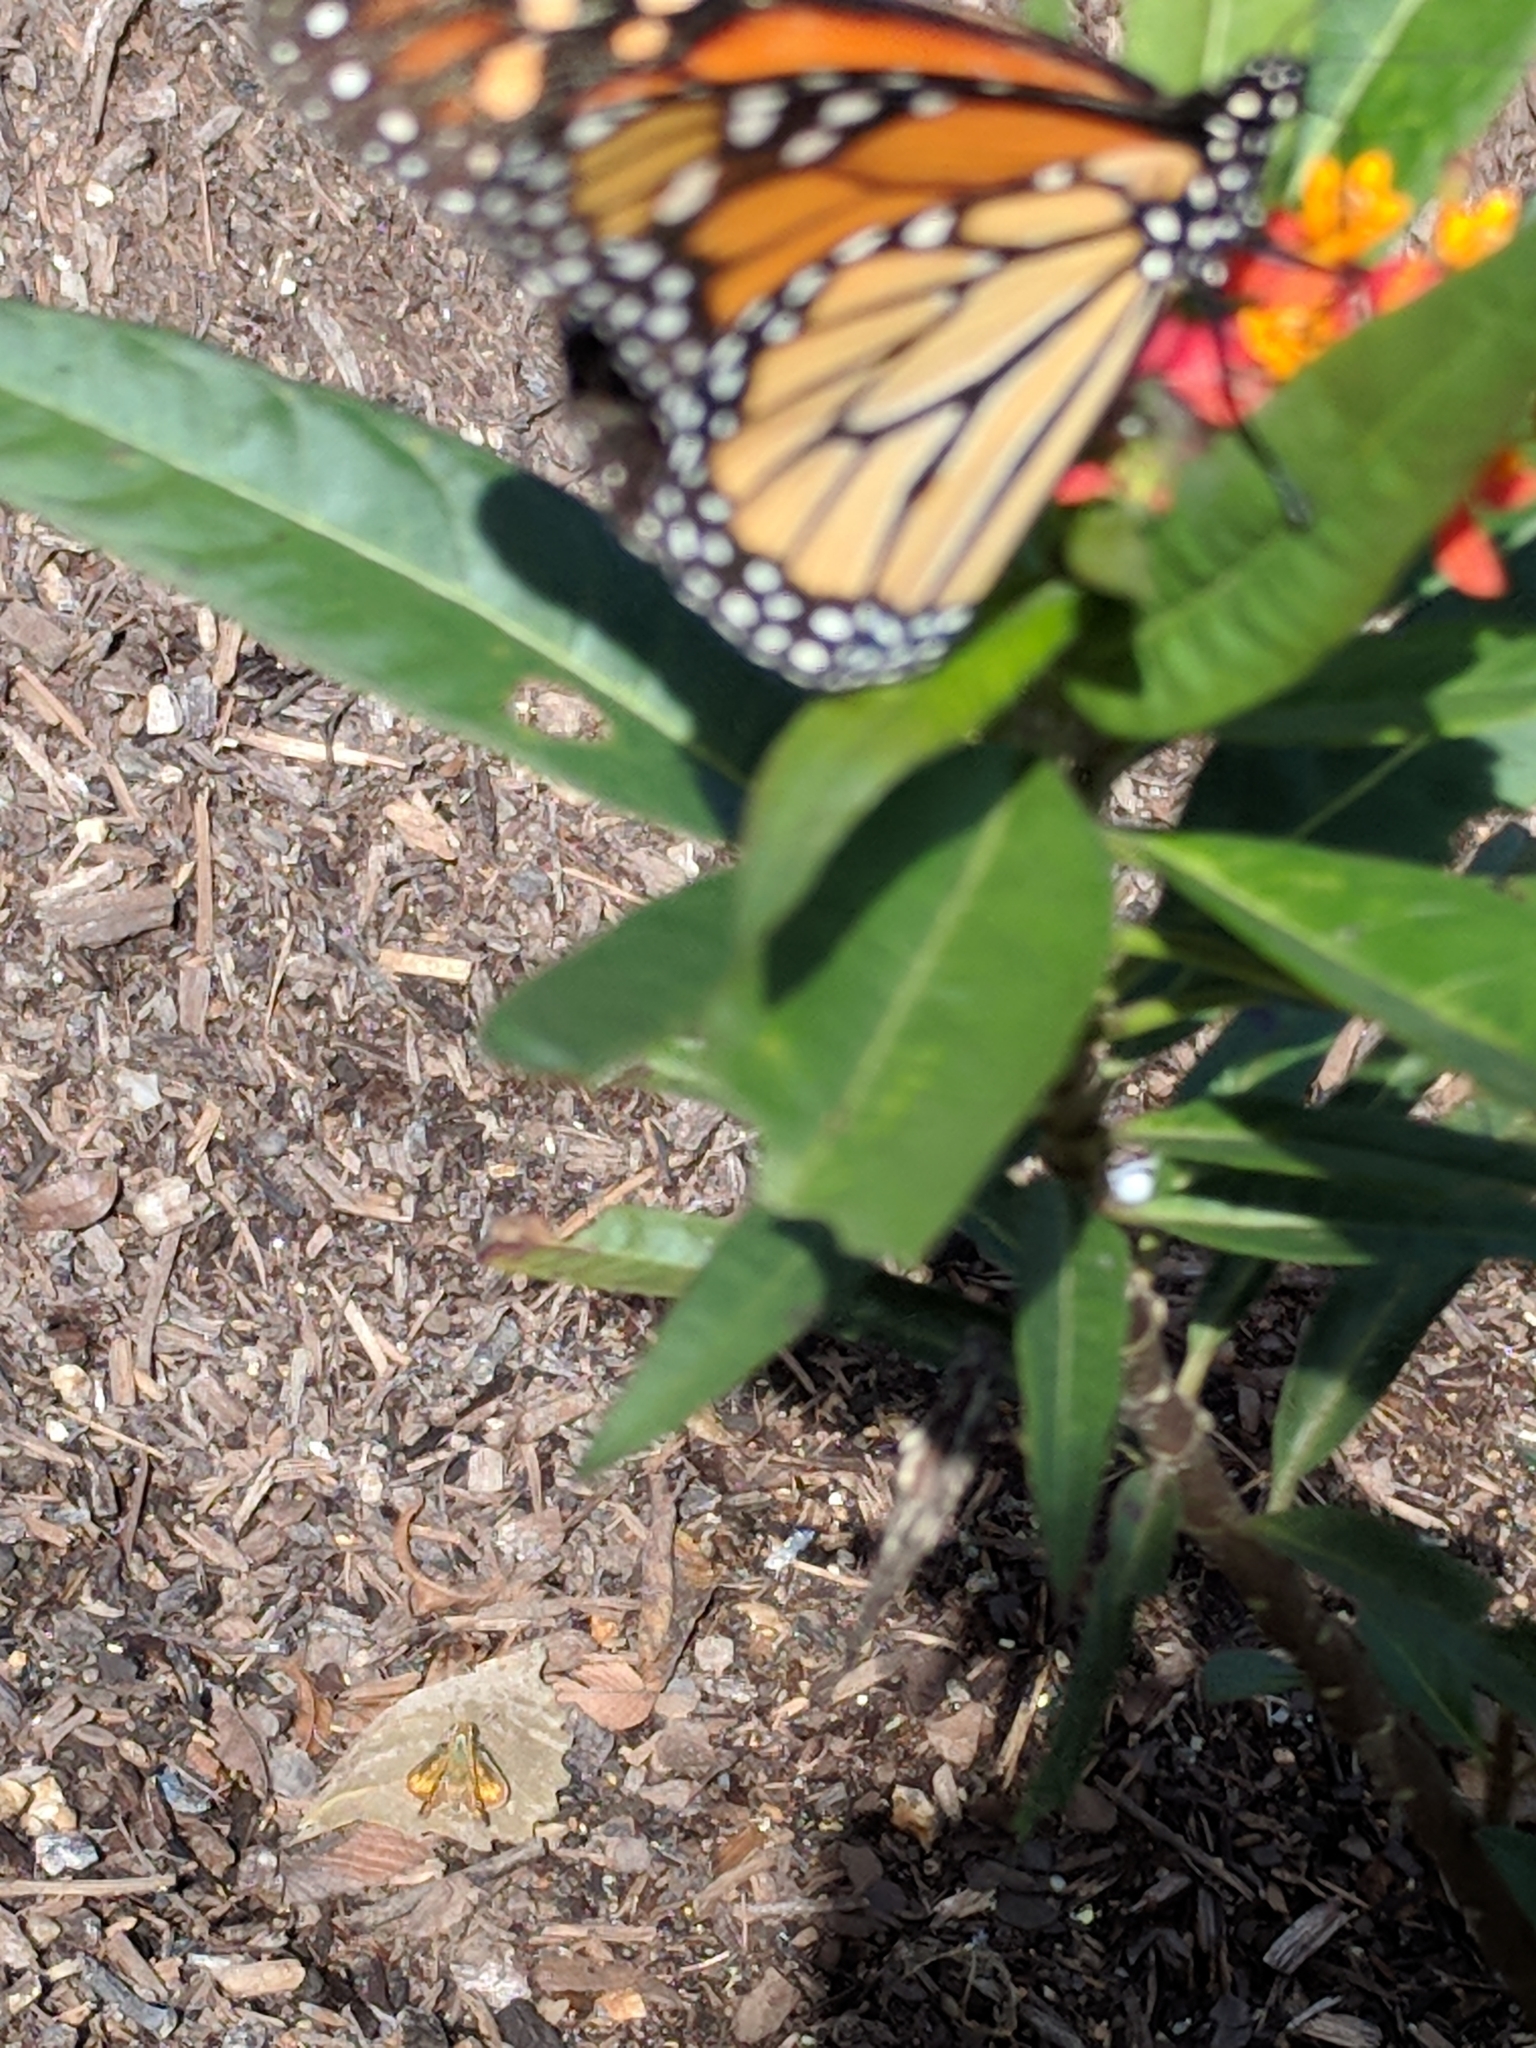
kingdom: Animalia
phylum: Arthropoda
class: Insecta
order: Lepidoptera
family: Nymphalidae
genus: Danaus
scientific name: Danaus plexippus
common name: Monarch
